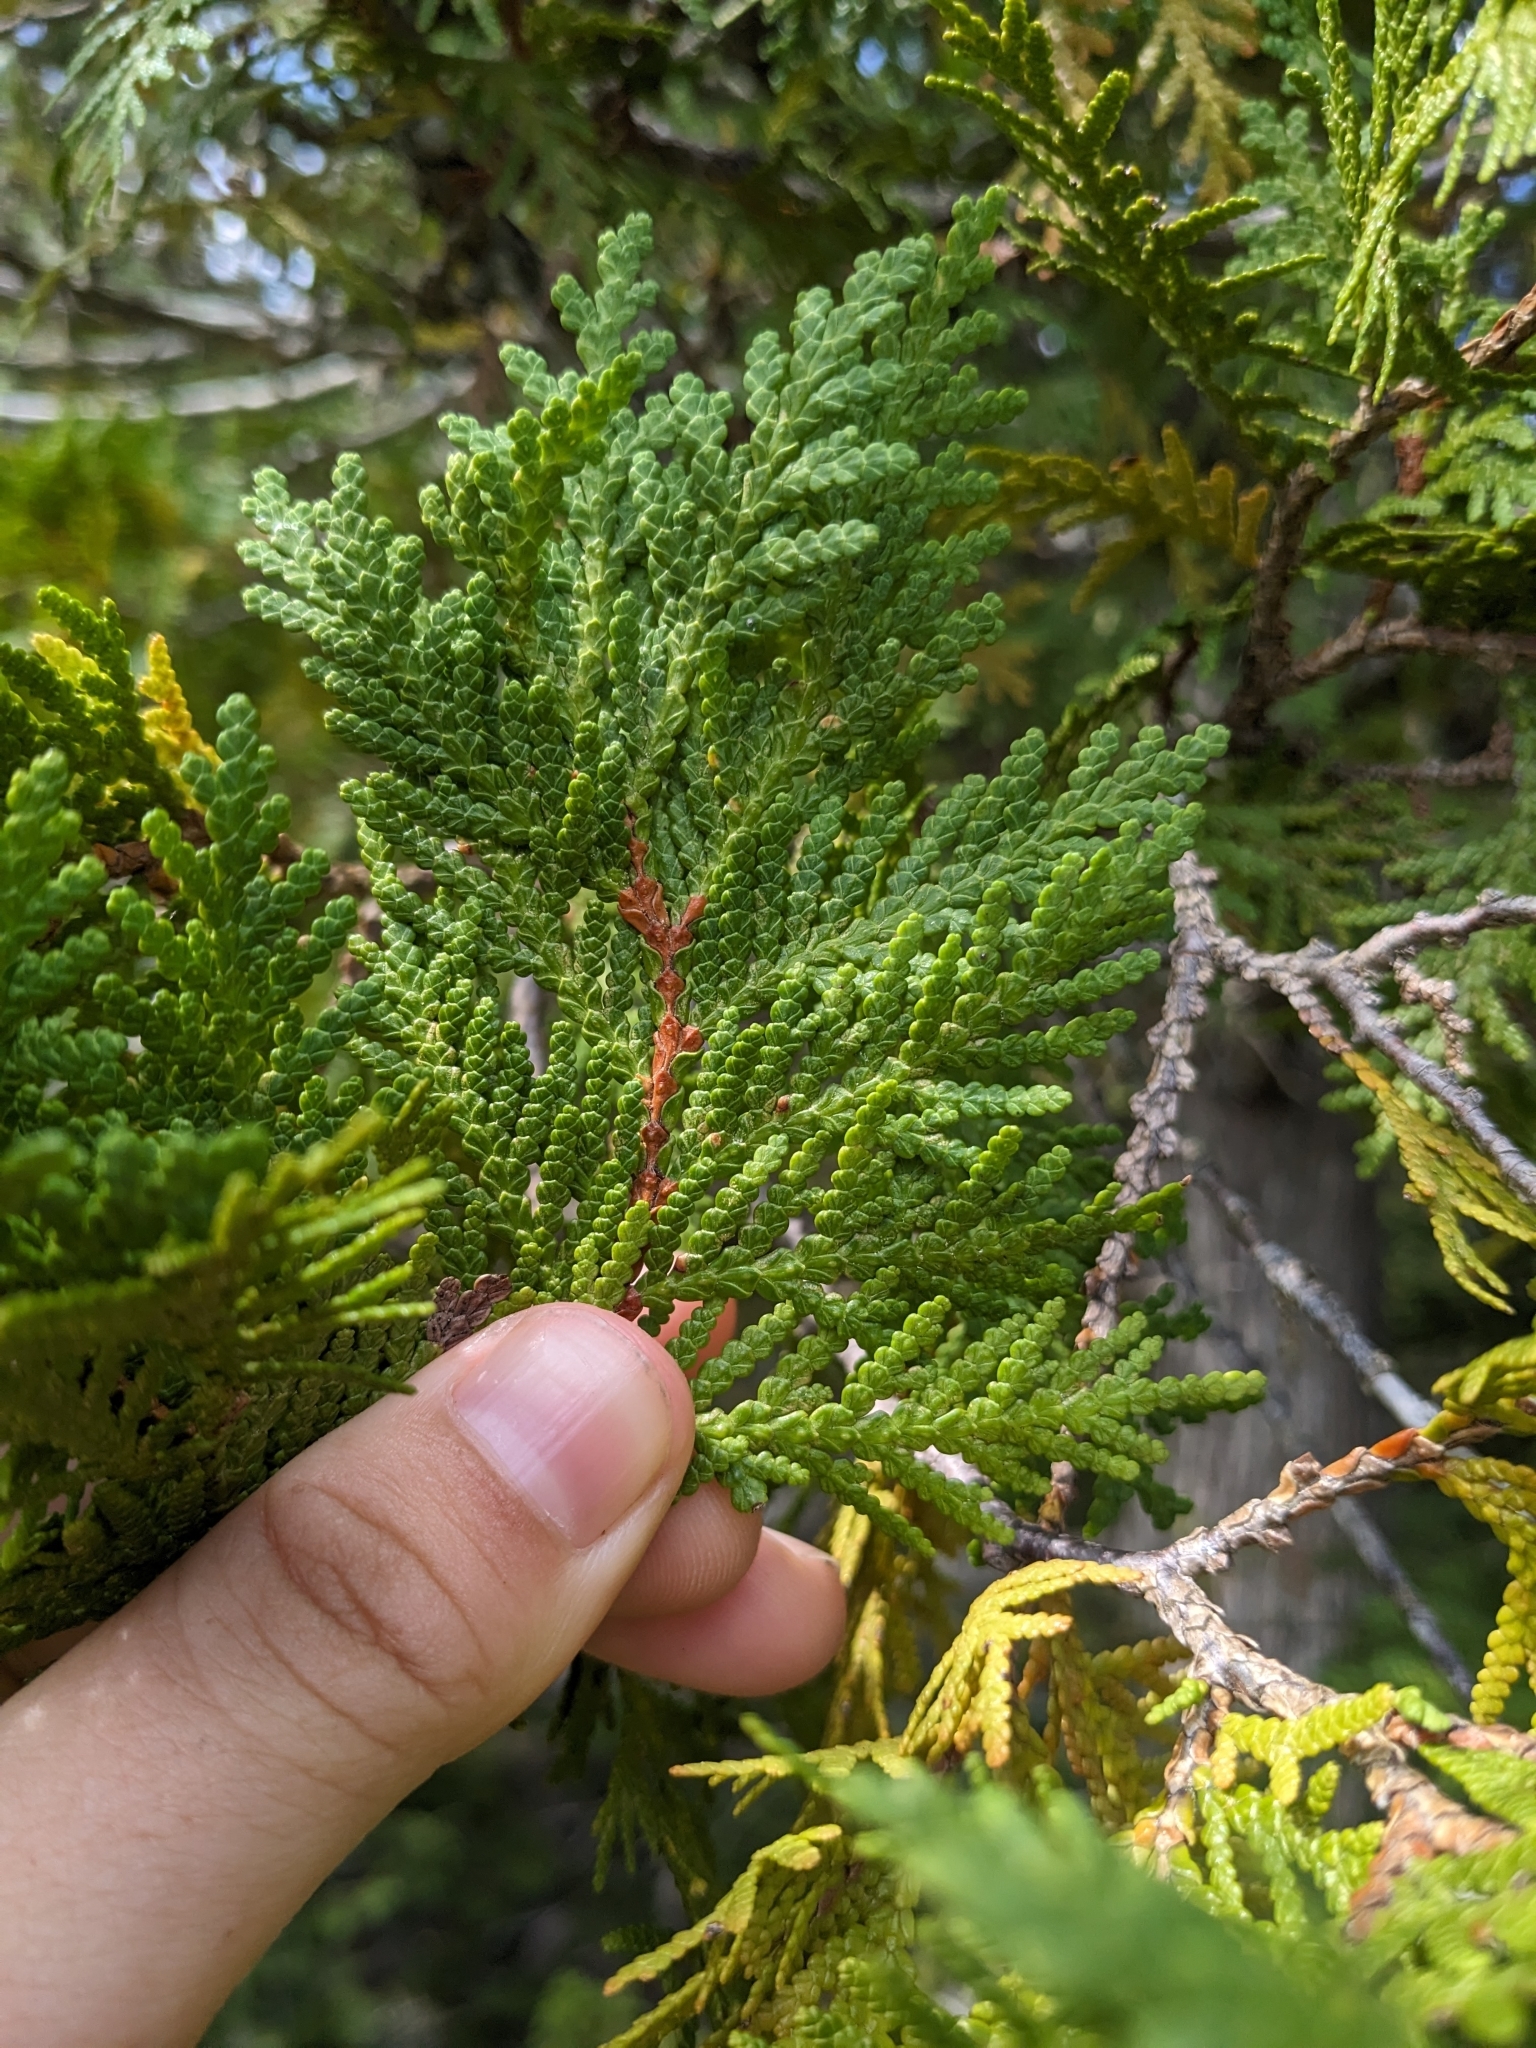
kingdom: Plantae
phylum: Tracheophyta
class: Pinopsida
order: Pinales
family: Cupressaceae
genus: Thuja
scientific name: Thuja occidentalis
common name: Northern white-cedar
